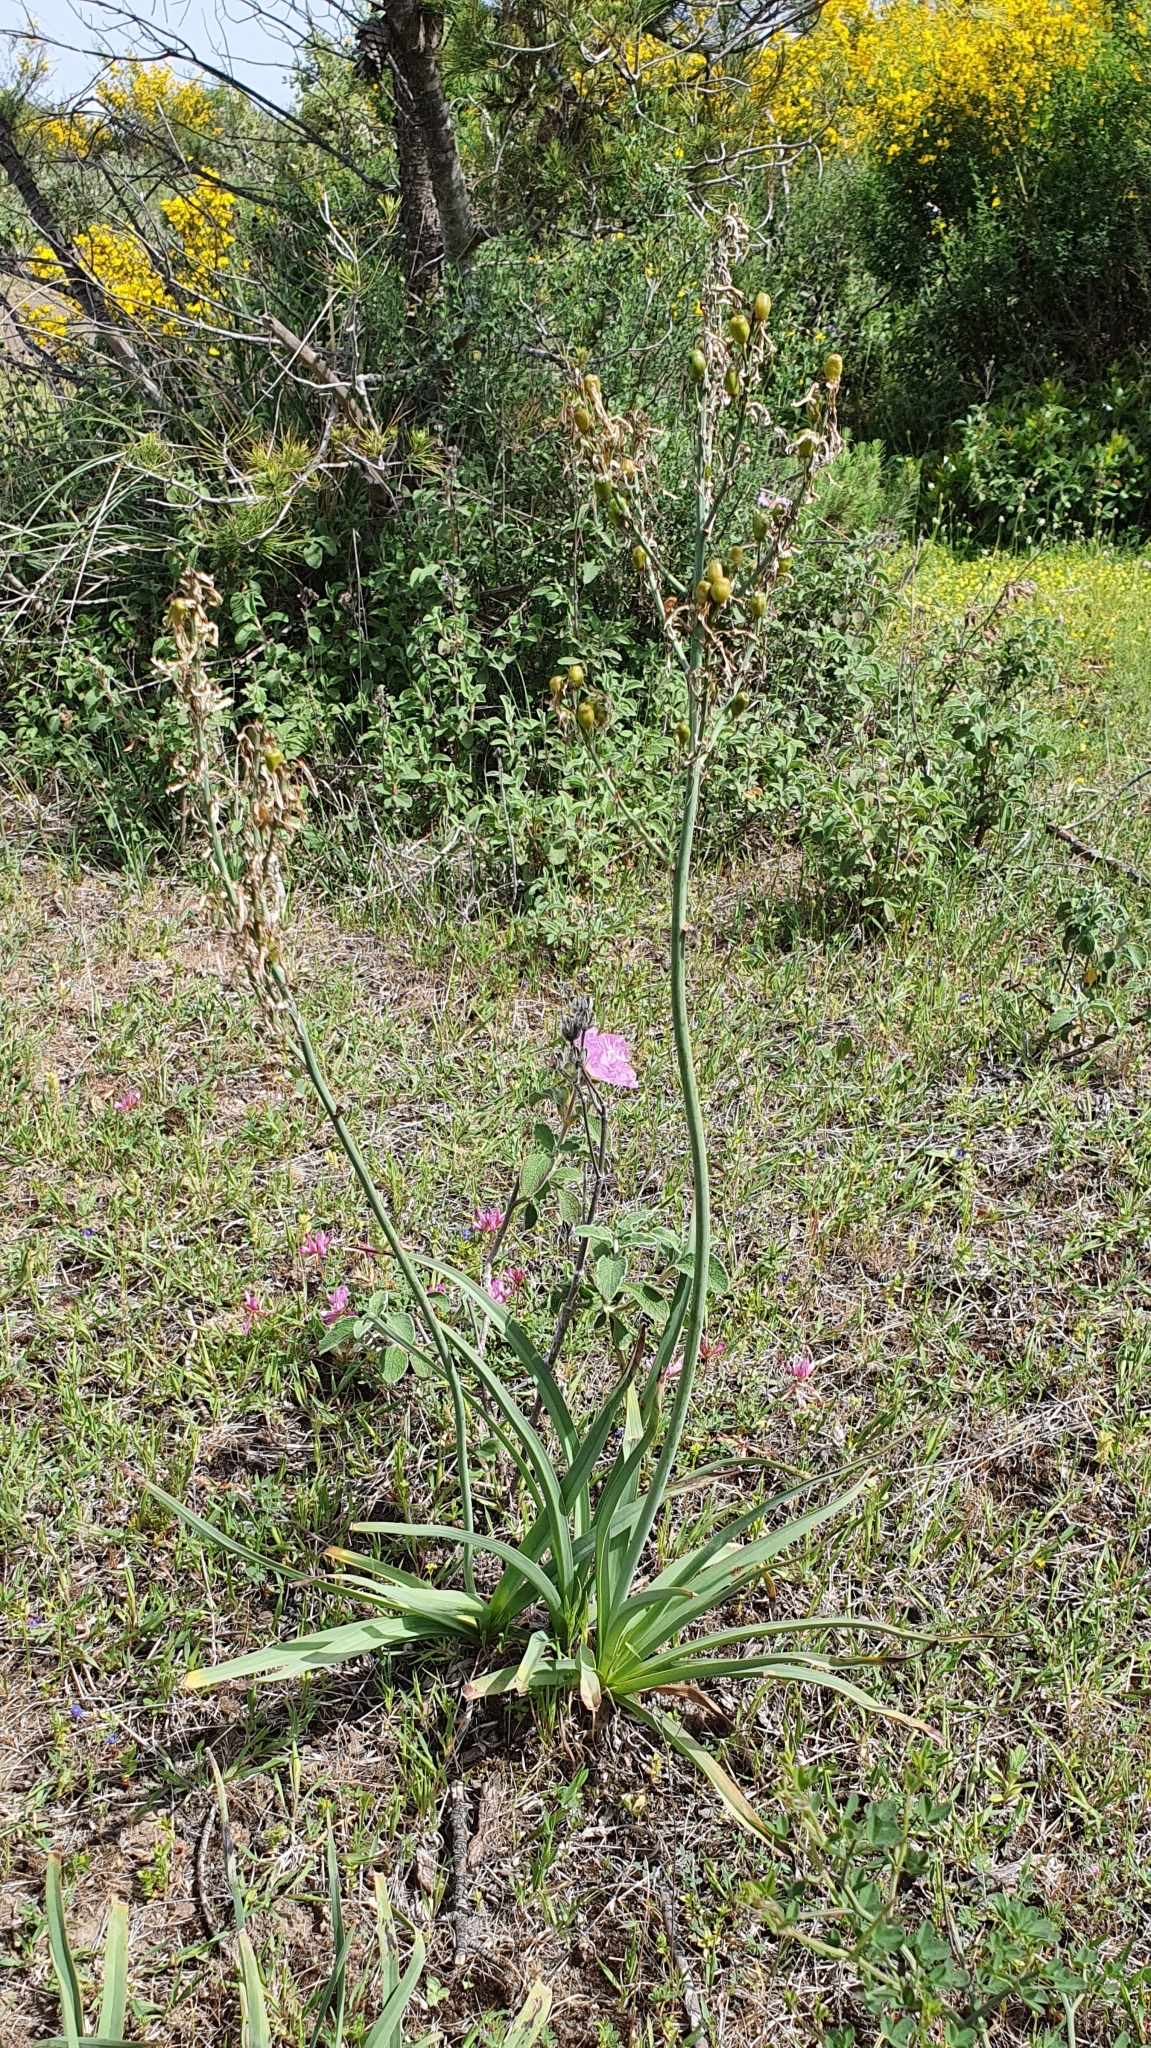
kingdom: Plantae
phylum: Tracheophyta
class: Liliopsida
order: Asparagales
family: Asphodelaceae
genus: Asphodelus
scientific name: Asphodelus ramosus
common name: Silverrod
